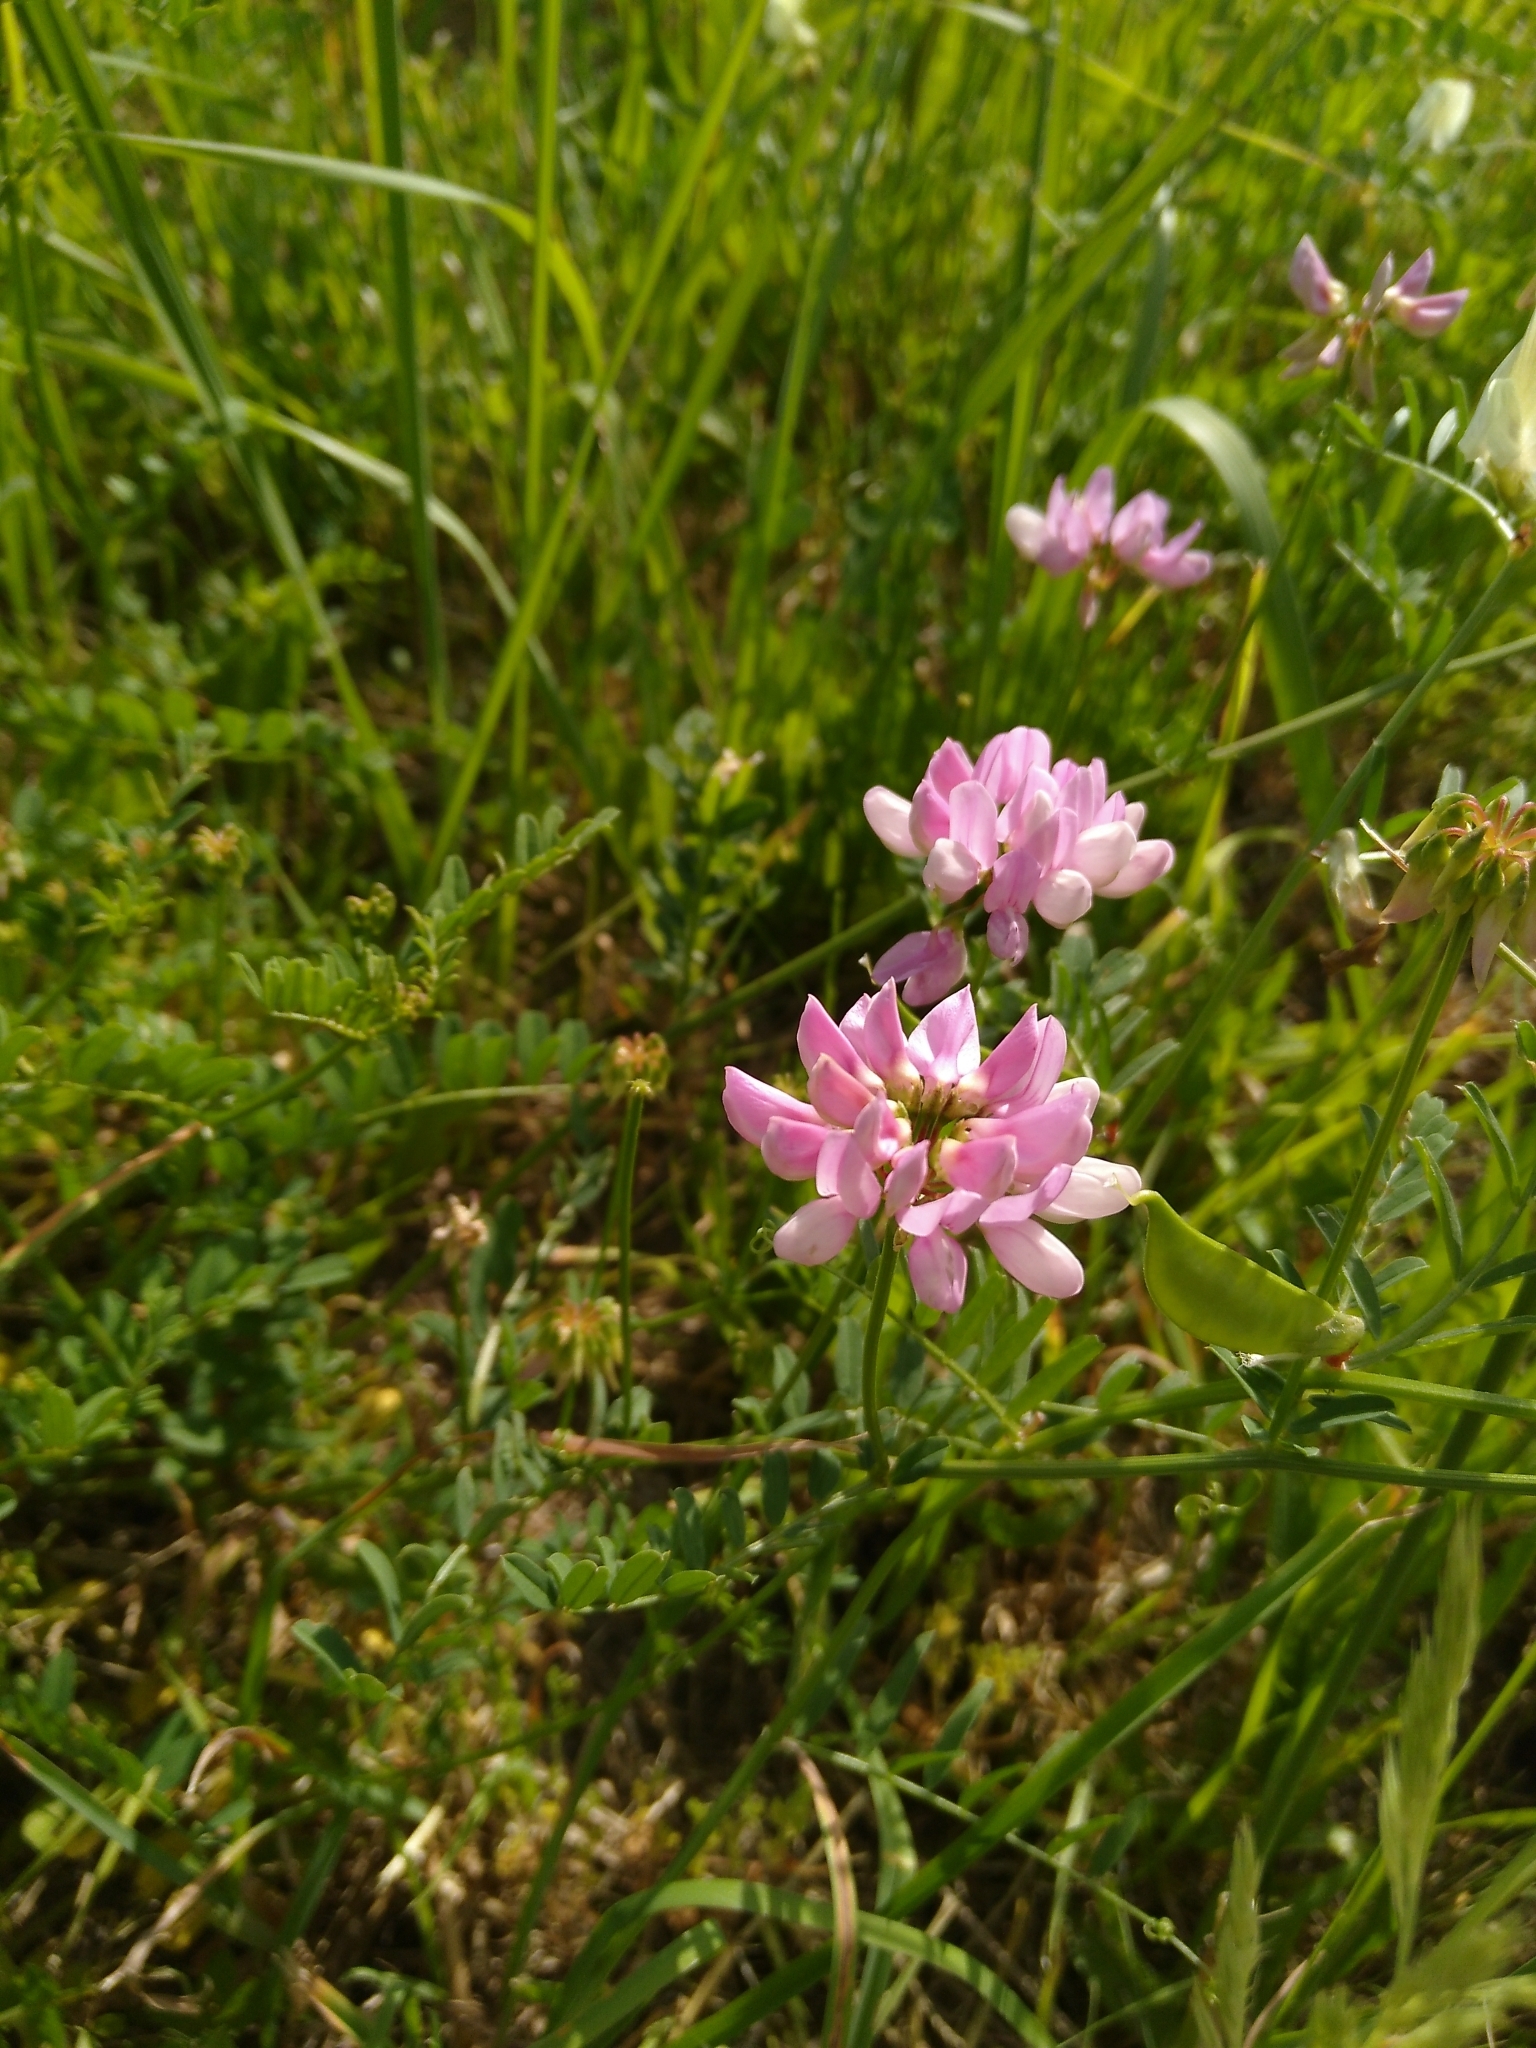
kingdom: Plantae
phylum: Tracheophyta
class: Magnoliopsida
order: Fabales
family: Fabaceae
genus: Coronilla
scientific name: Coronilla varia
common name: Crownvetch
